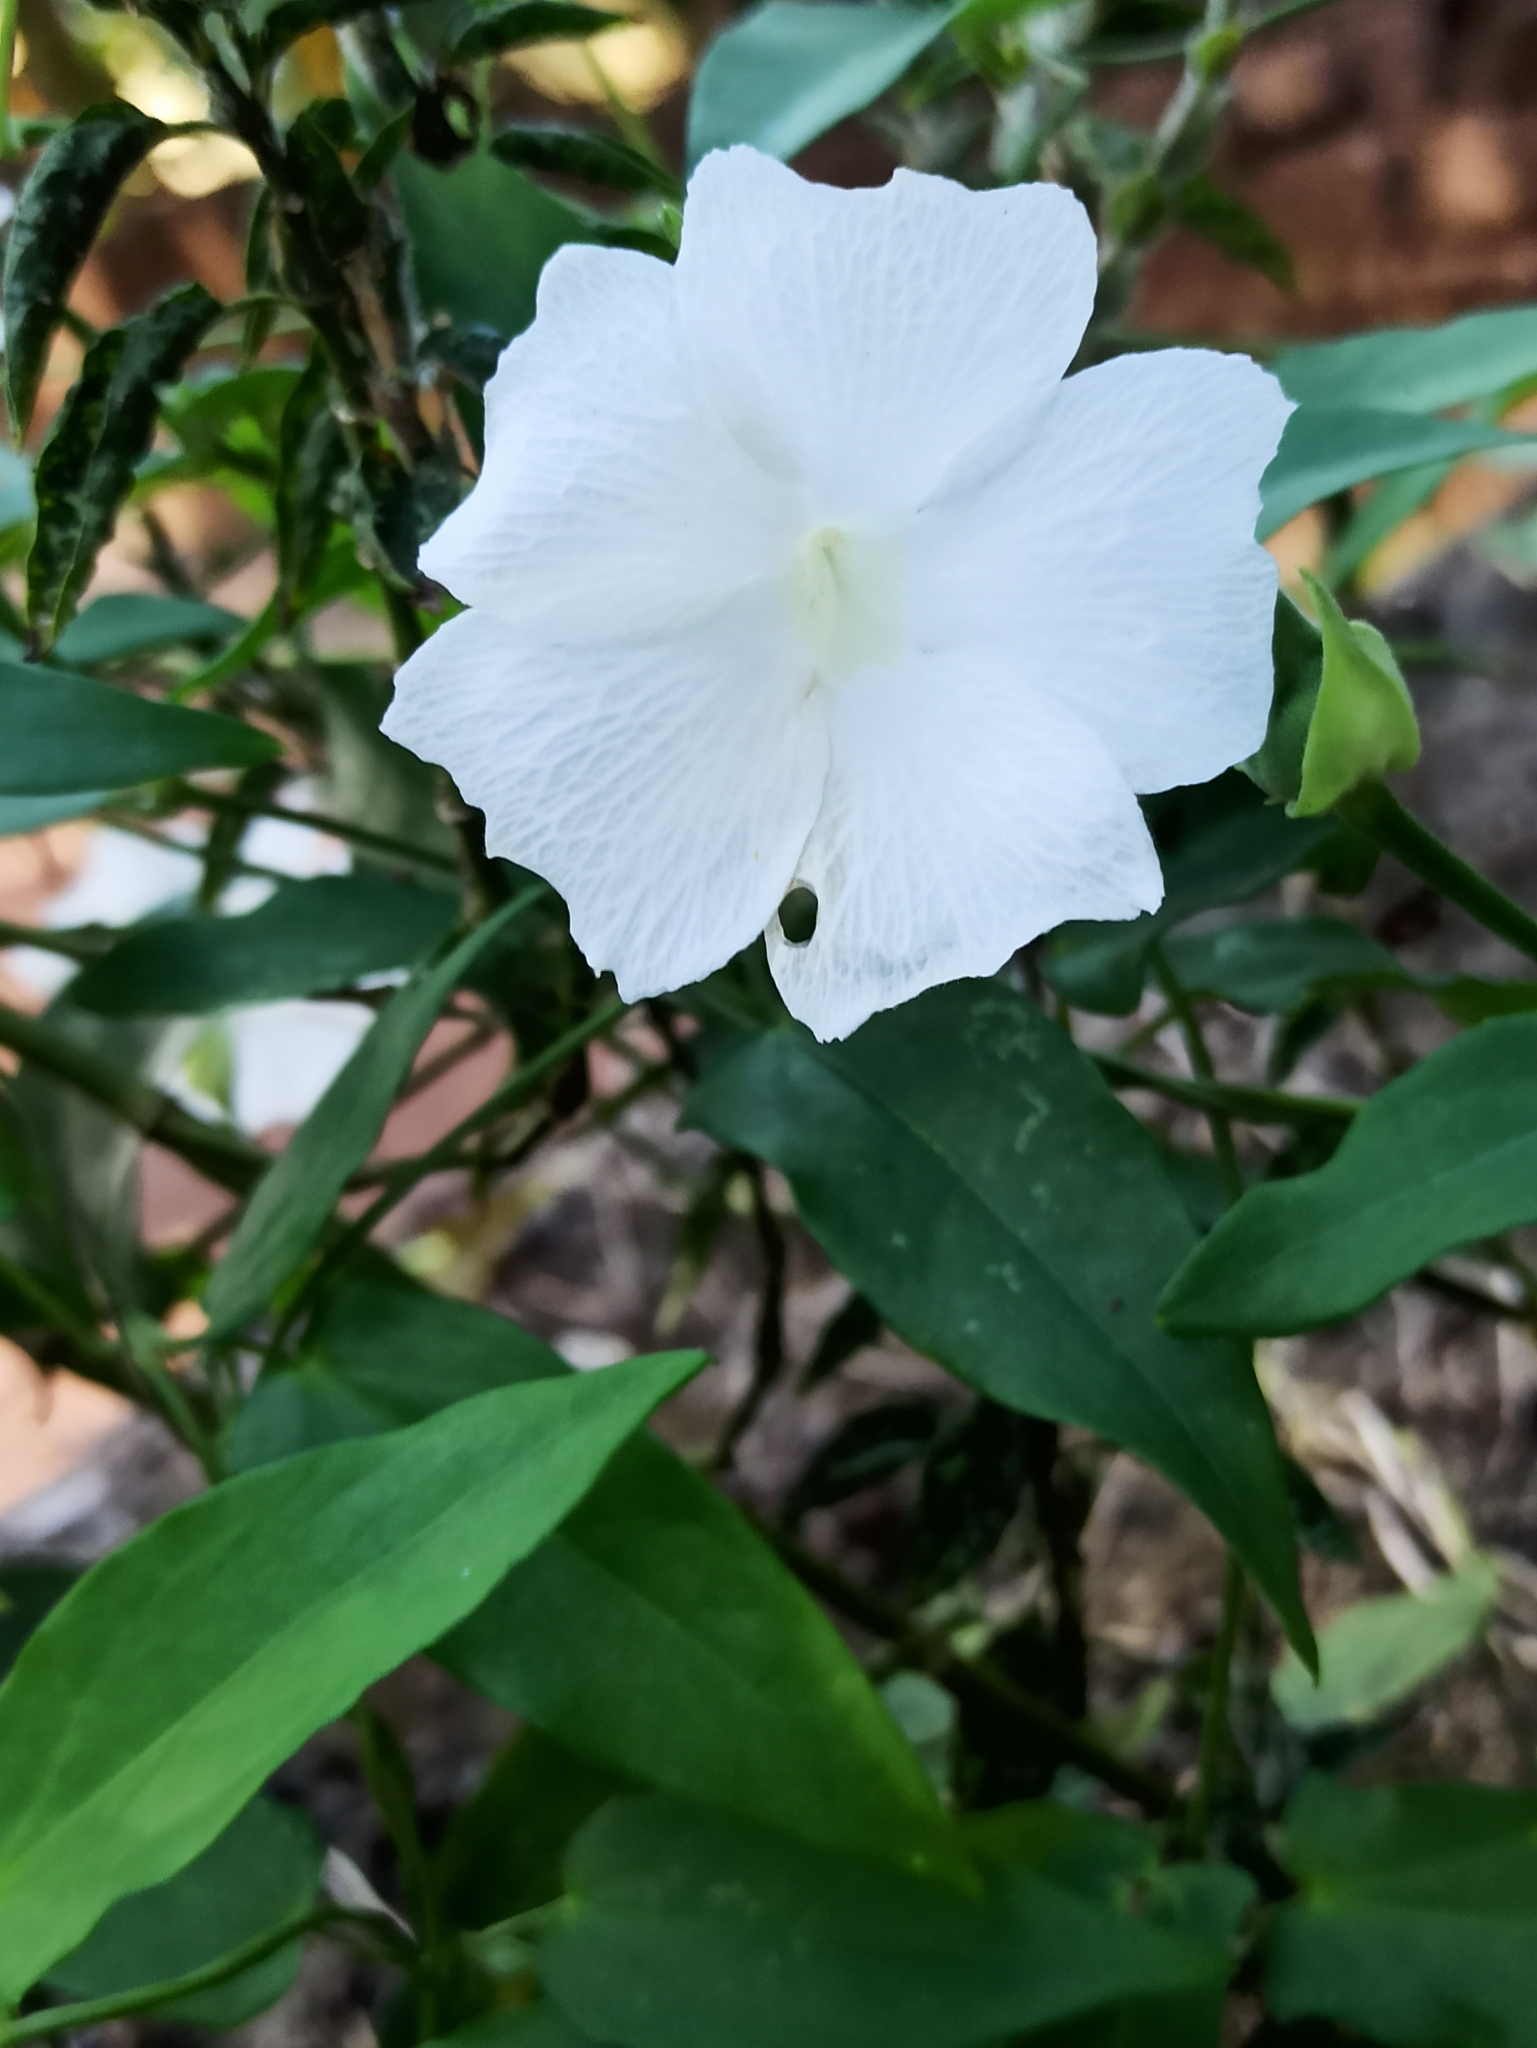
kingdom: Plantae
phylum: Tracheophyta
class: Magnoliopsida
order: Lamiales
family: Acanthaceae
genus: Thunbergia
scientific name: Thunbergia fragrans
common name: Whitelady
